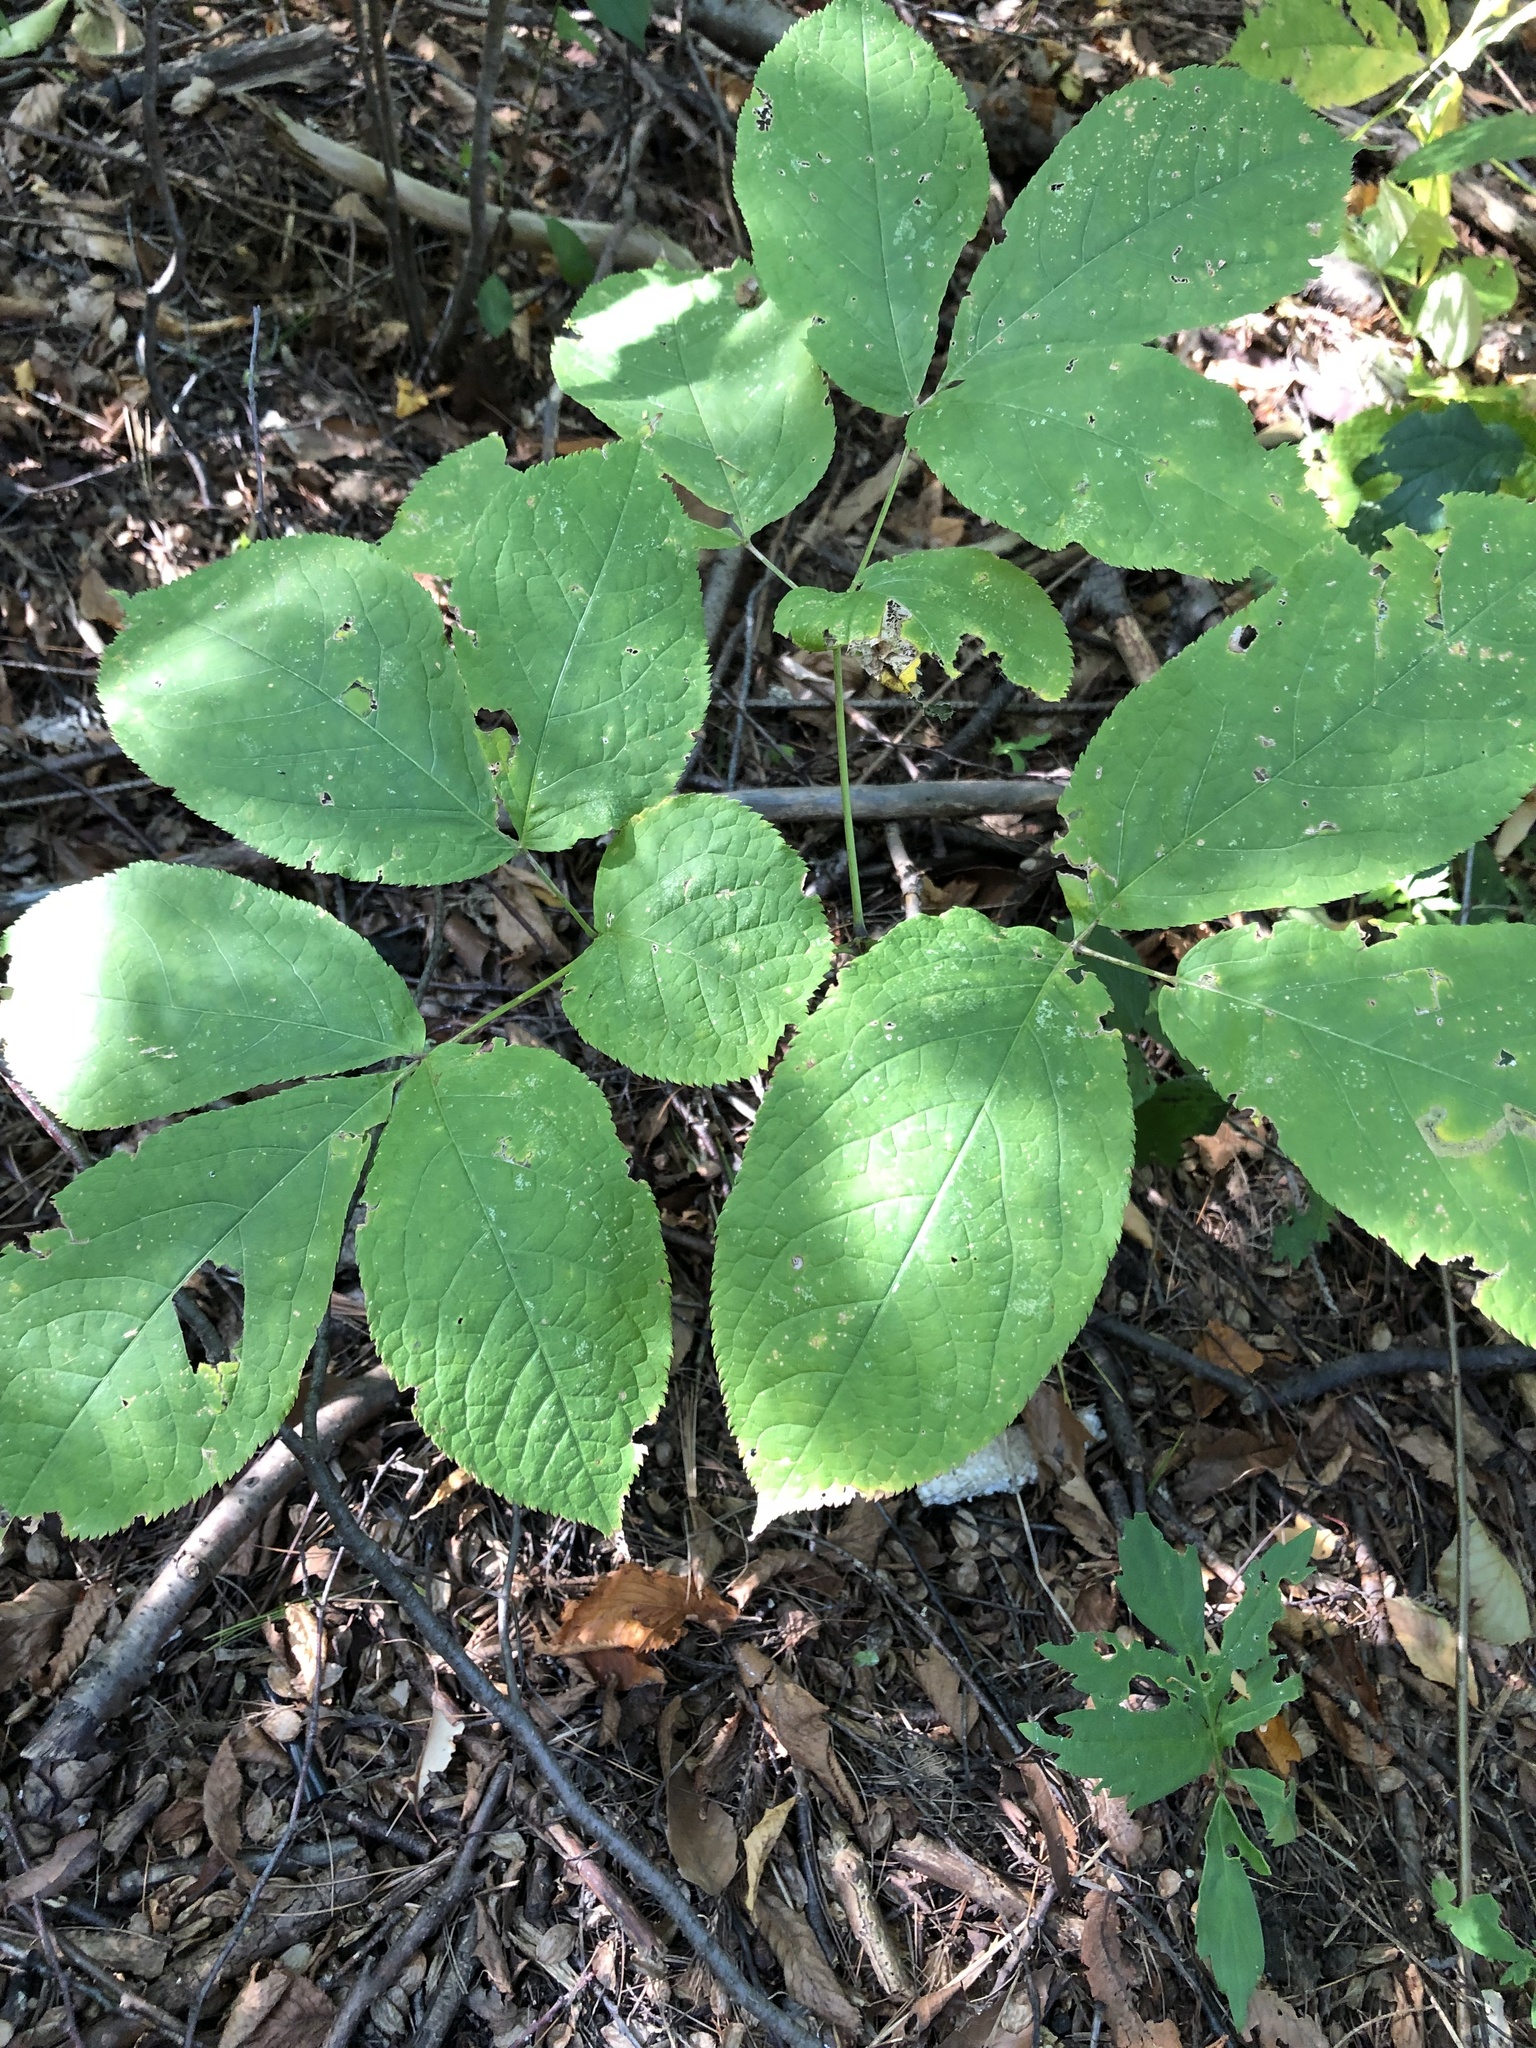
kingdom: Plantae
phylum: Tracheophyta
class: Magnoliopsida
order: Apiales
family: Araliaceae
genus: Aralia
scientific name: Aralia nudicaulis
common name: Wild sarsaparilla
